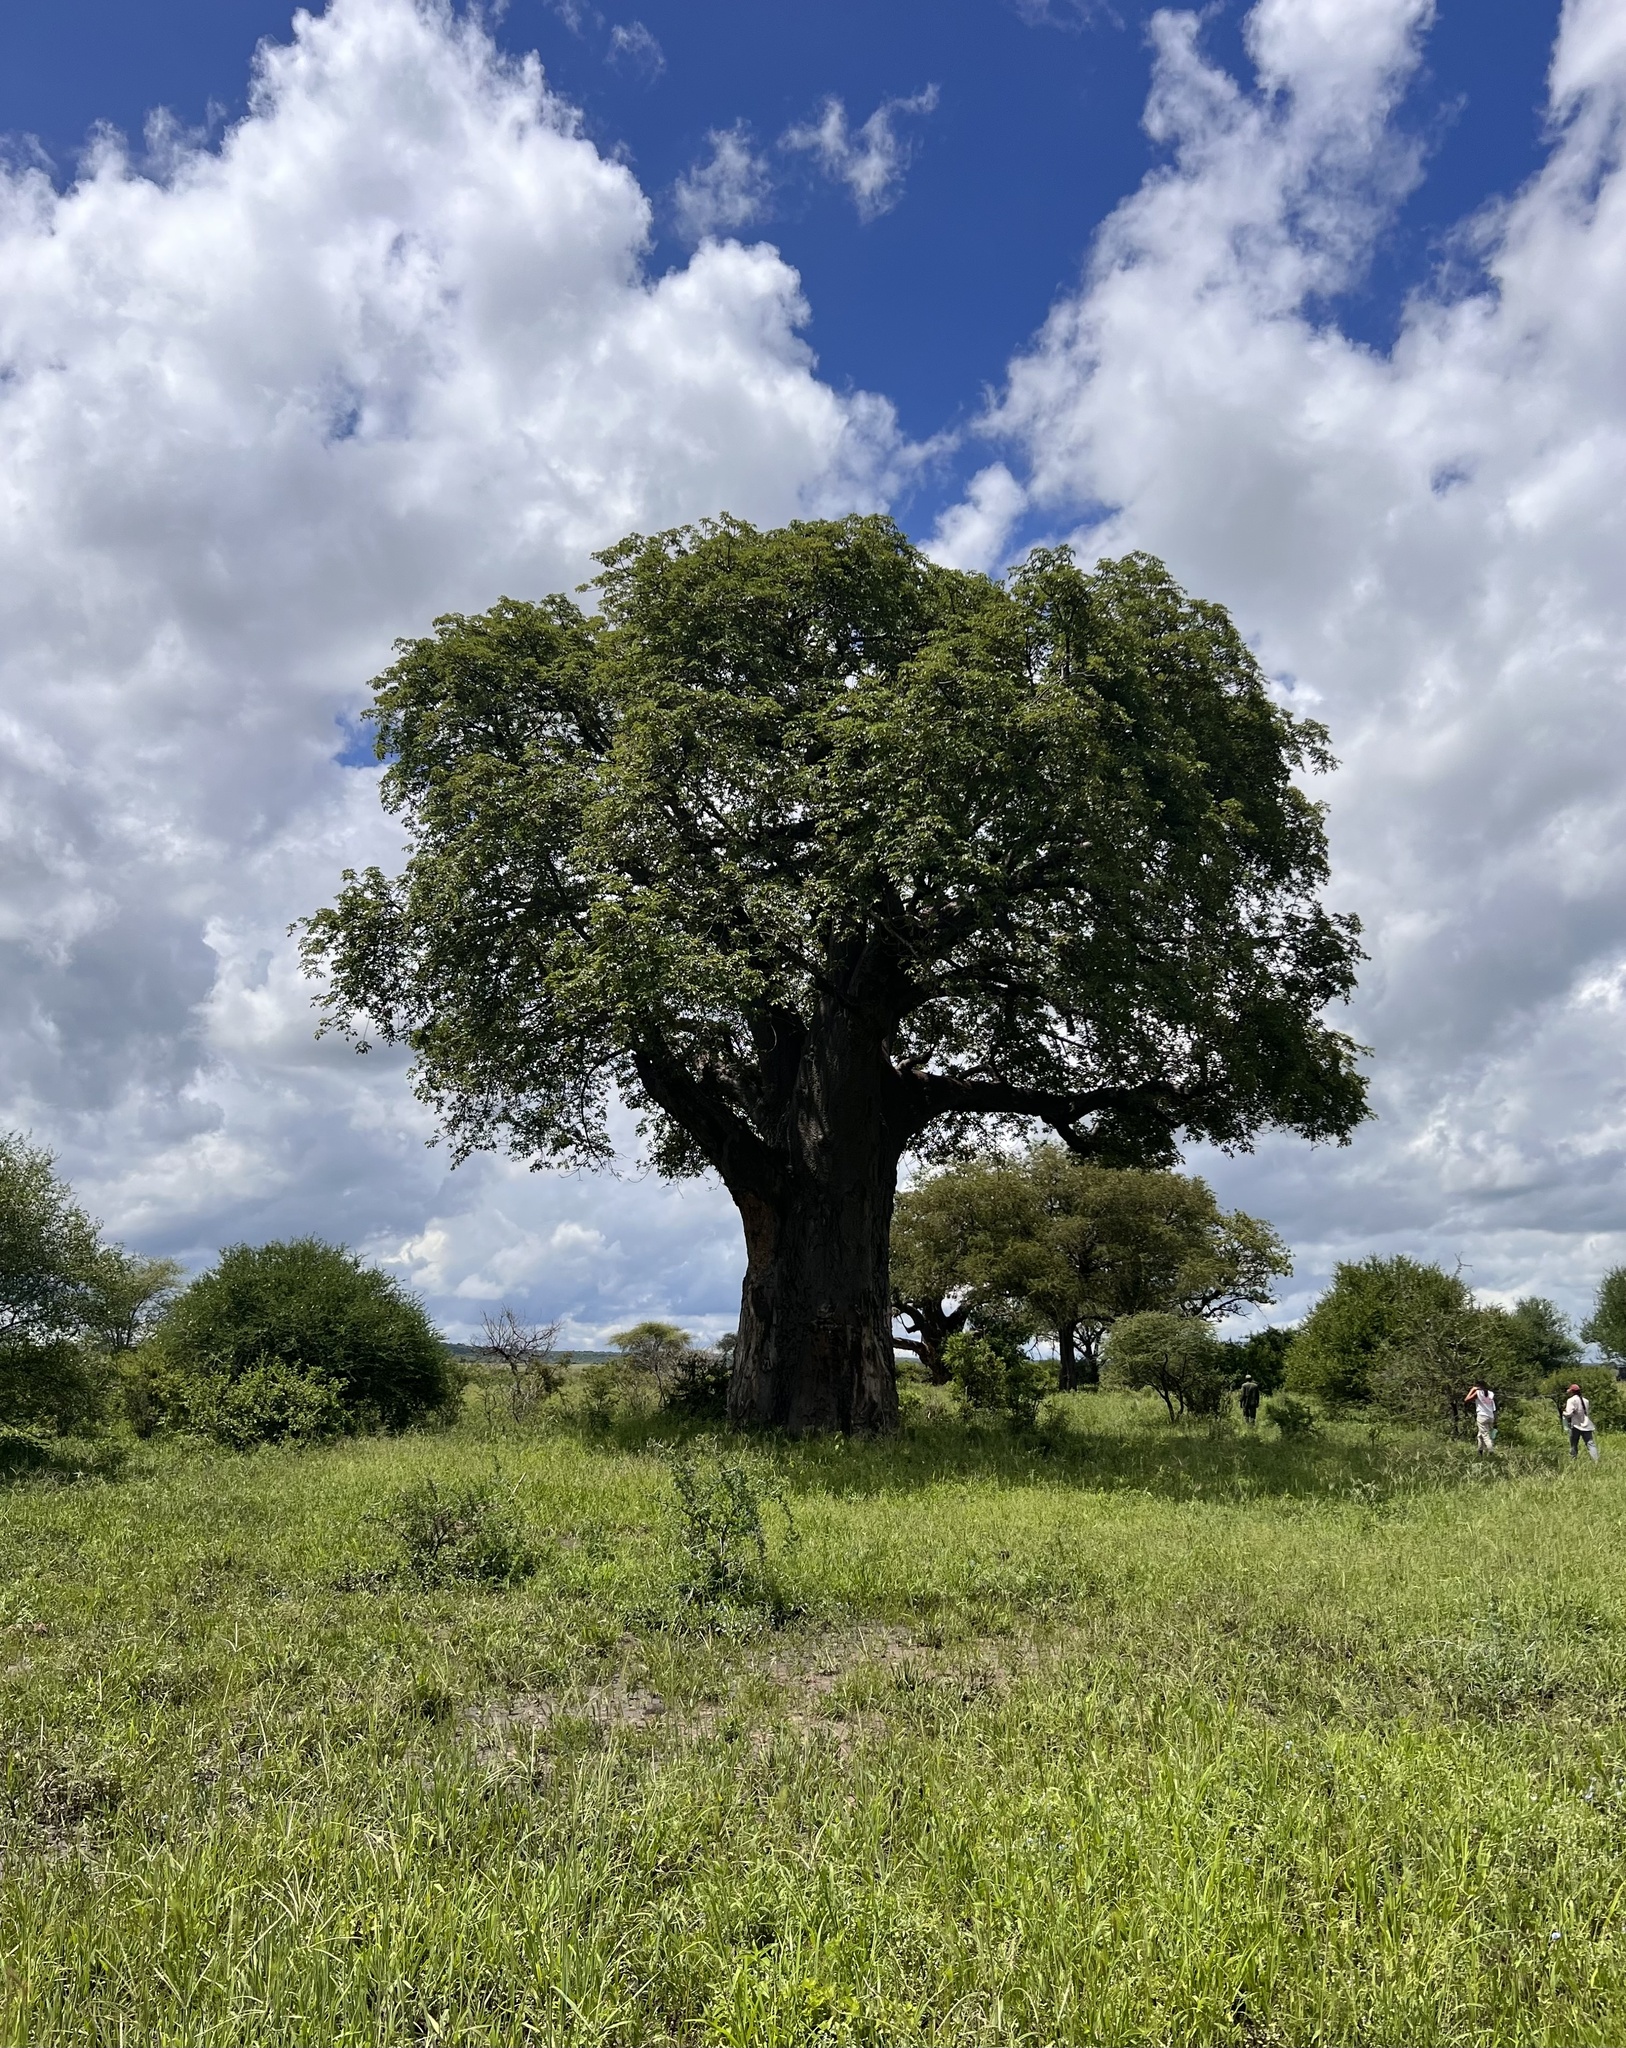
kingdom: Plantae
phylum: Tracheophyta
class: Magnoliopsida
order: Malvales
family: Malvaceae
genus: Adansonia
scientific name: Adansonia digitata
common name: Dead-rat-tree
